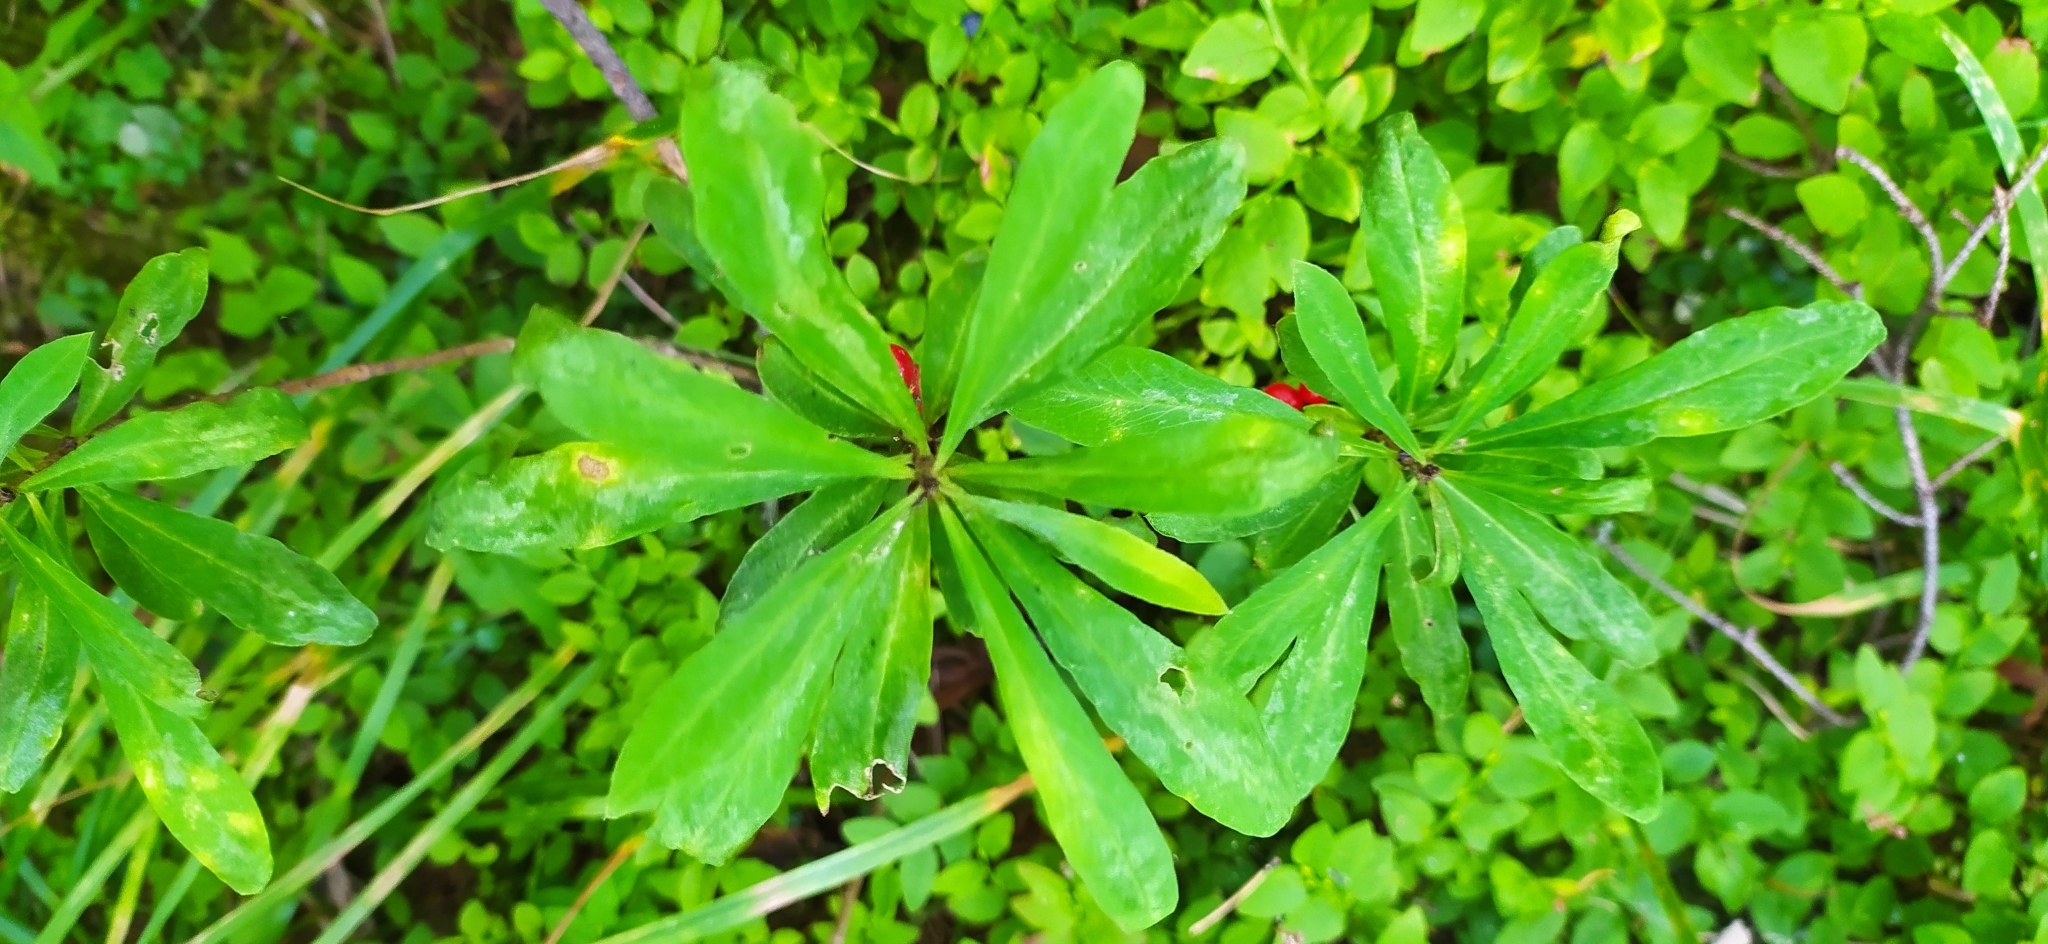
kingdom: Plantae
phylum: Tracheophyta
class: Magnoliopsida
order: Malvales
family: Thymelaeaceae
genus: Daphne
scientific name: Daphne mezereum
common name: Mezereon
